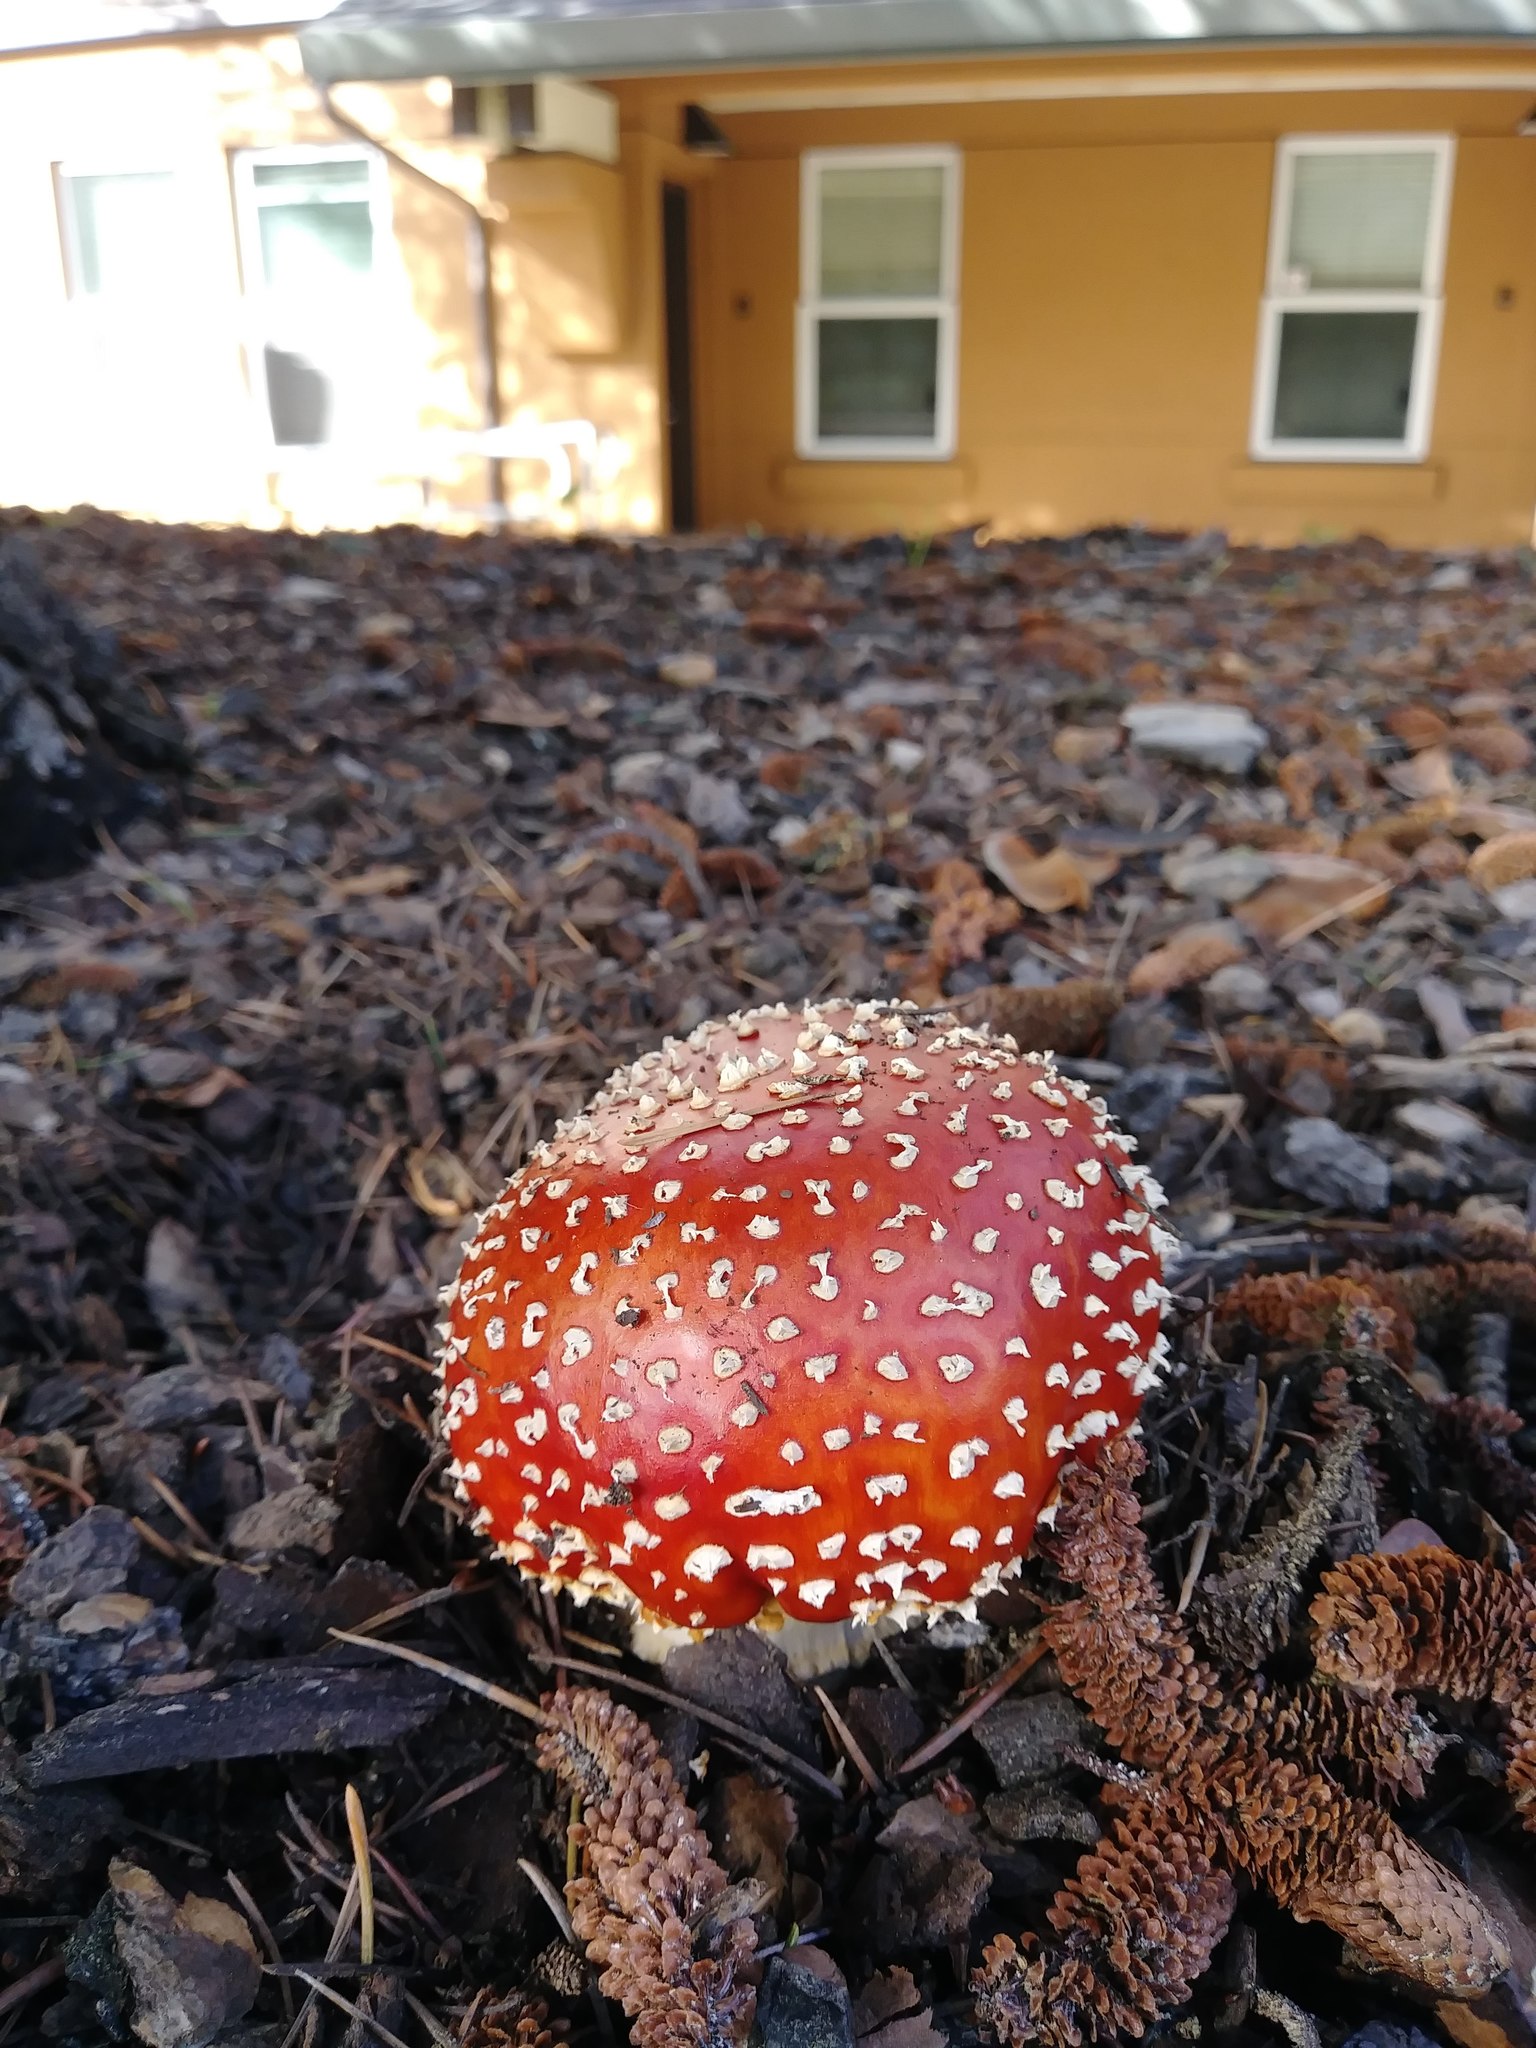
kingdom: Fungi
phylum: Basidiomycota
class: Agaricomycetes
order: Agaricales
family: Amanitaceae
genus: Amanita
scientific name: Amanita muscaria
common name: Fly agaric
